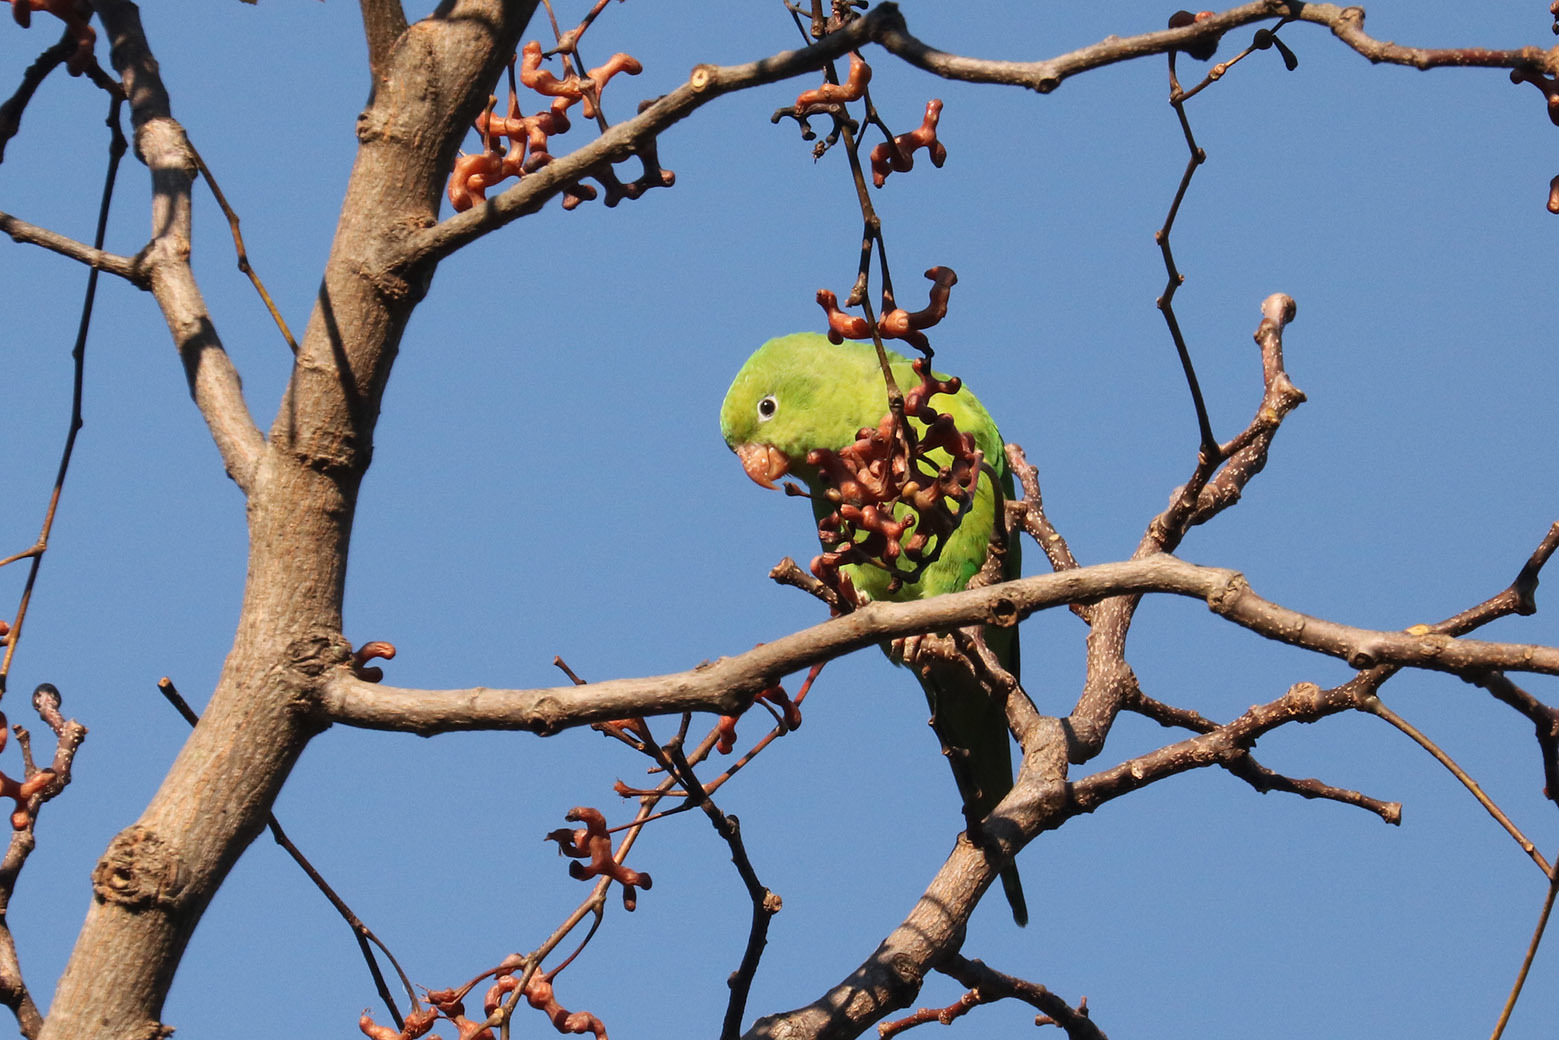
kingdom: Animalia
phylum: Chordata
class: Aves
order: Psittaciformes
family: Psittacidae
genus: Brotogeris
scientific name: Brotogeris chiriri
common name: Yellow-chevroned parakeet
